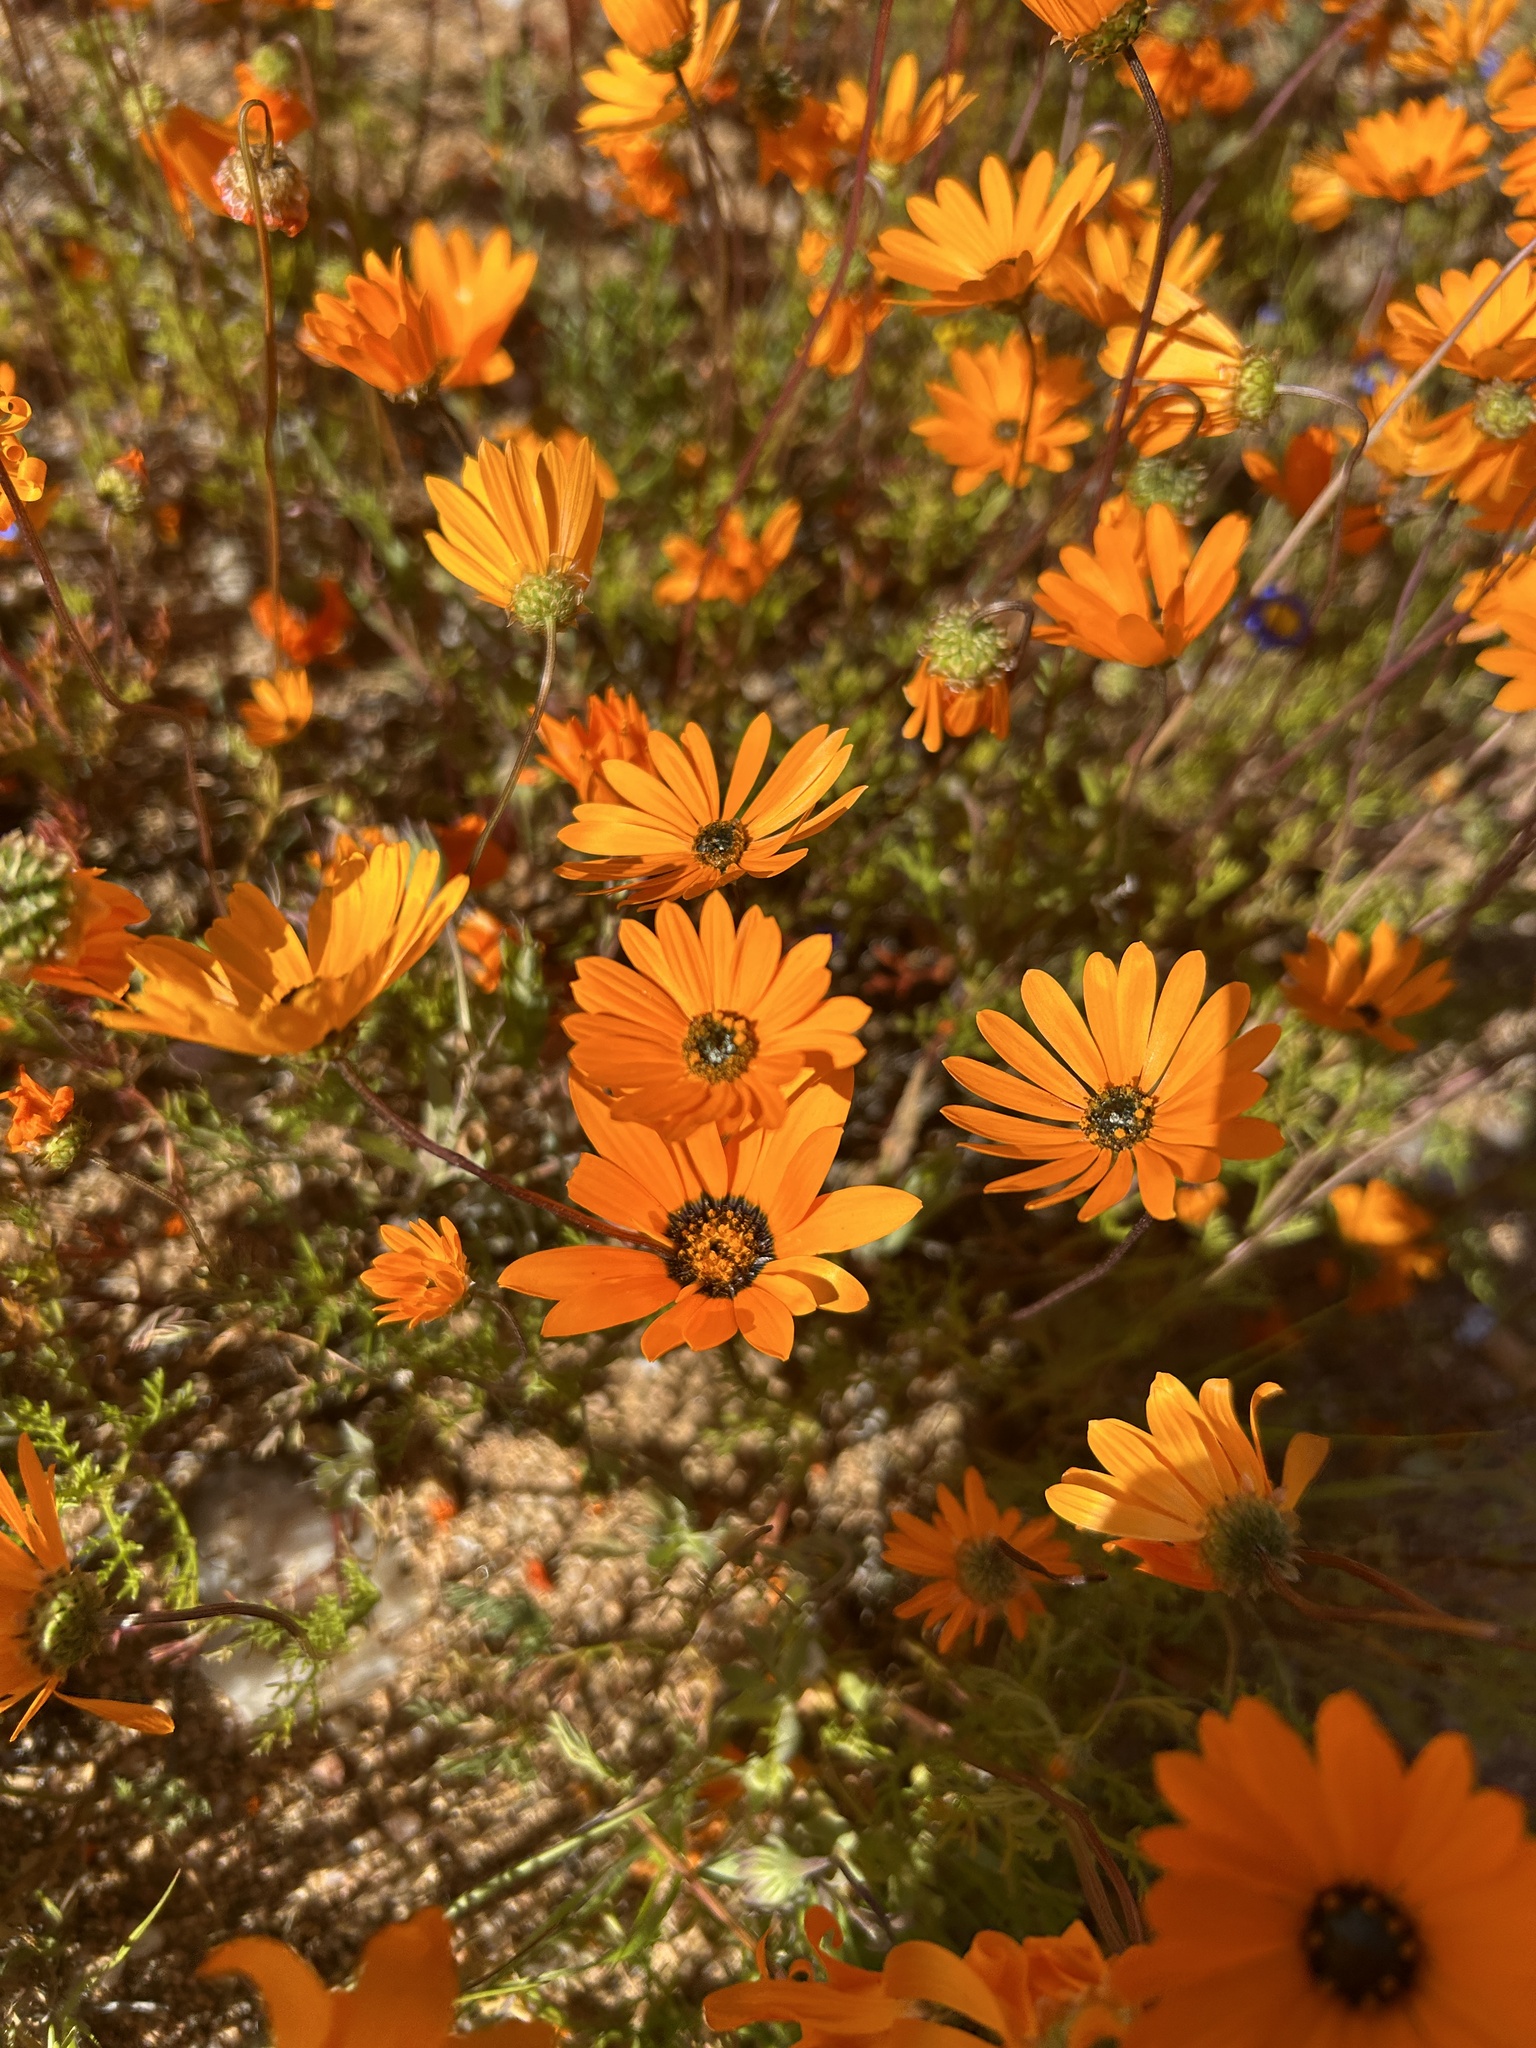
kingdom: Plantae
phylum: Tracheophyta
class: Magnoliopsida
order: Asterales
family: Asteraceae
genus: Dimorphotheca
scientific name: Dimorphotheca sinuata
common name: Glandular cape marigold
